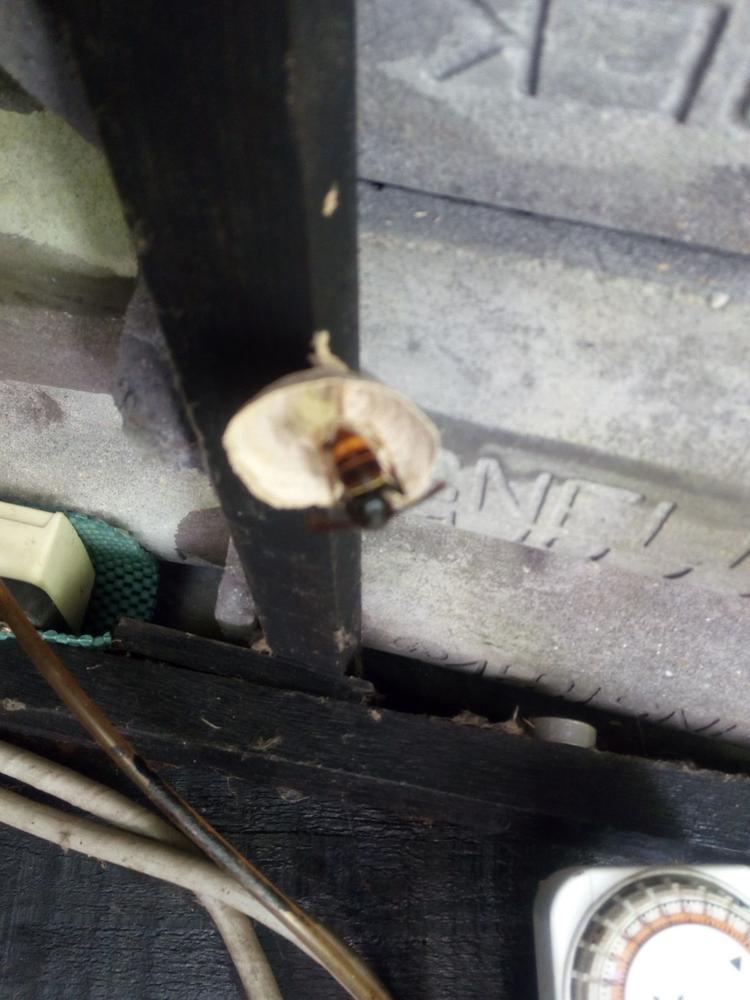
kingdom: Animalia
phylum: Arthropoda
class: Insecta
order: Hymenoptera
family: Vespidae
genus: Vespa
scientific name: Vespa velutina
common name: Asian hornet
